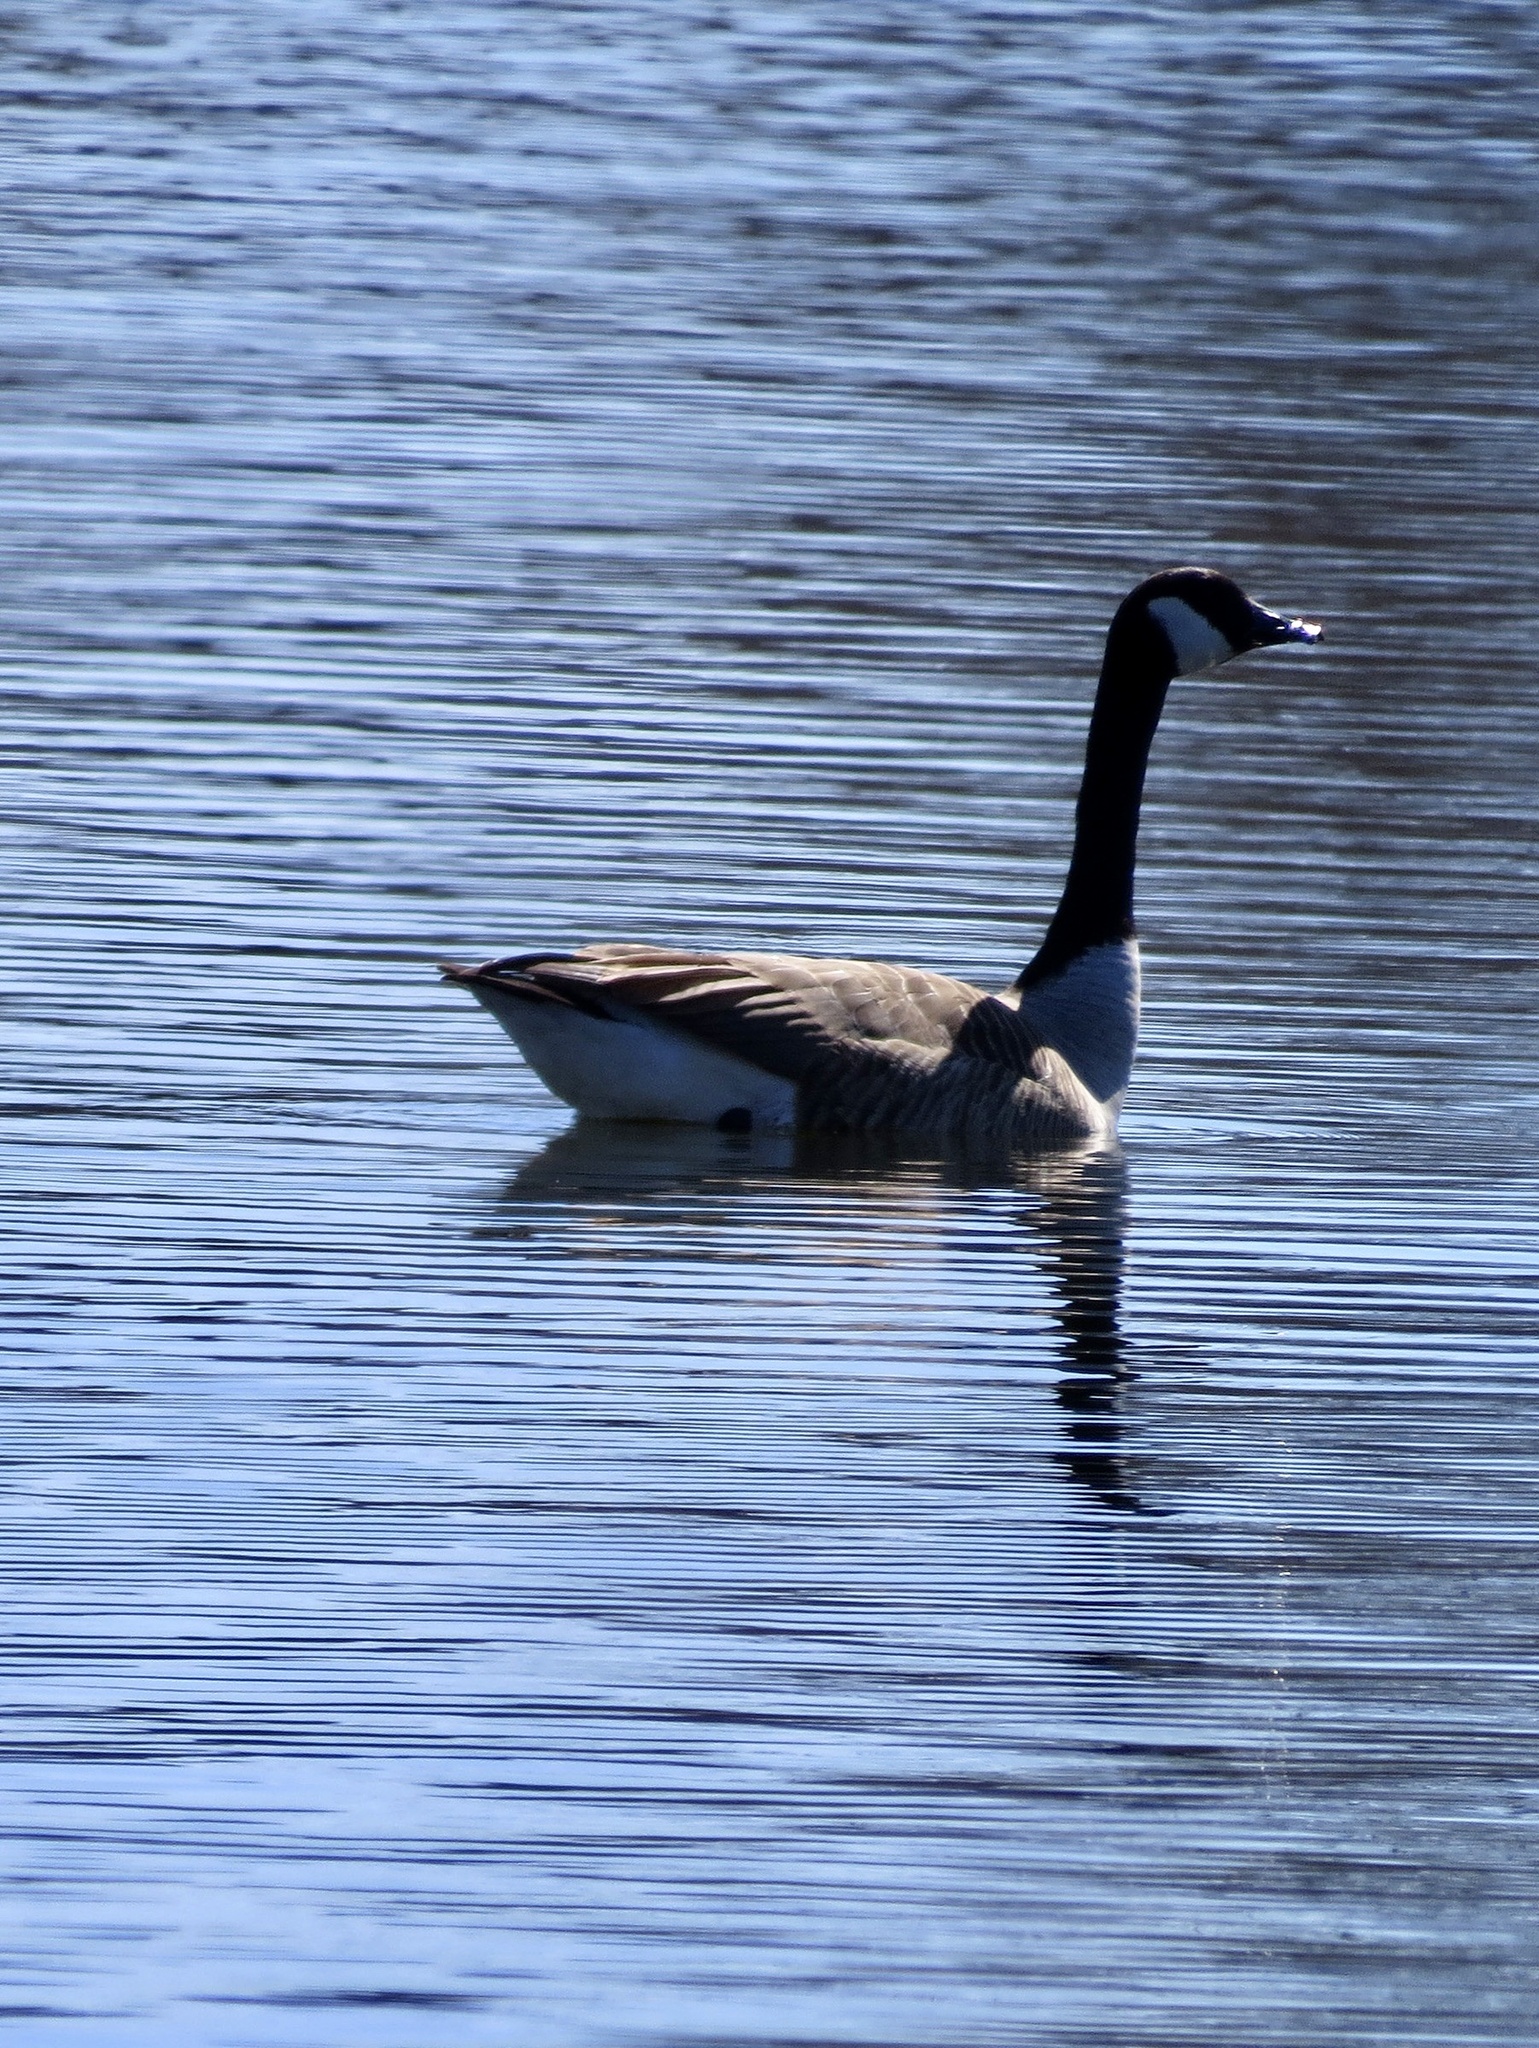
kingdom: Animalia
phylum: Chordata
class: Aves
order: Anseriformes
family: Anatidae
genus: Branta
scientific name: Branta canadensis
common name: Canada goose
